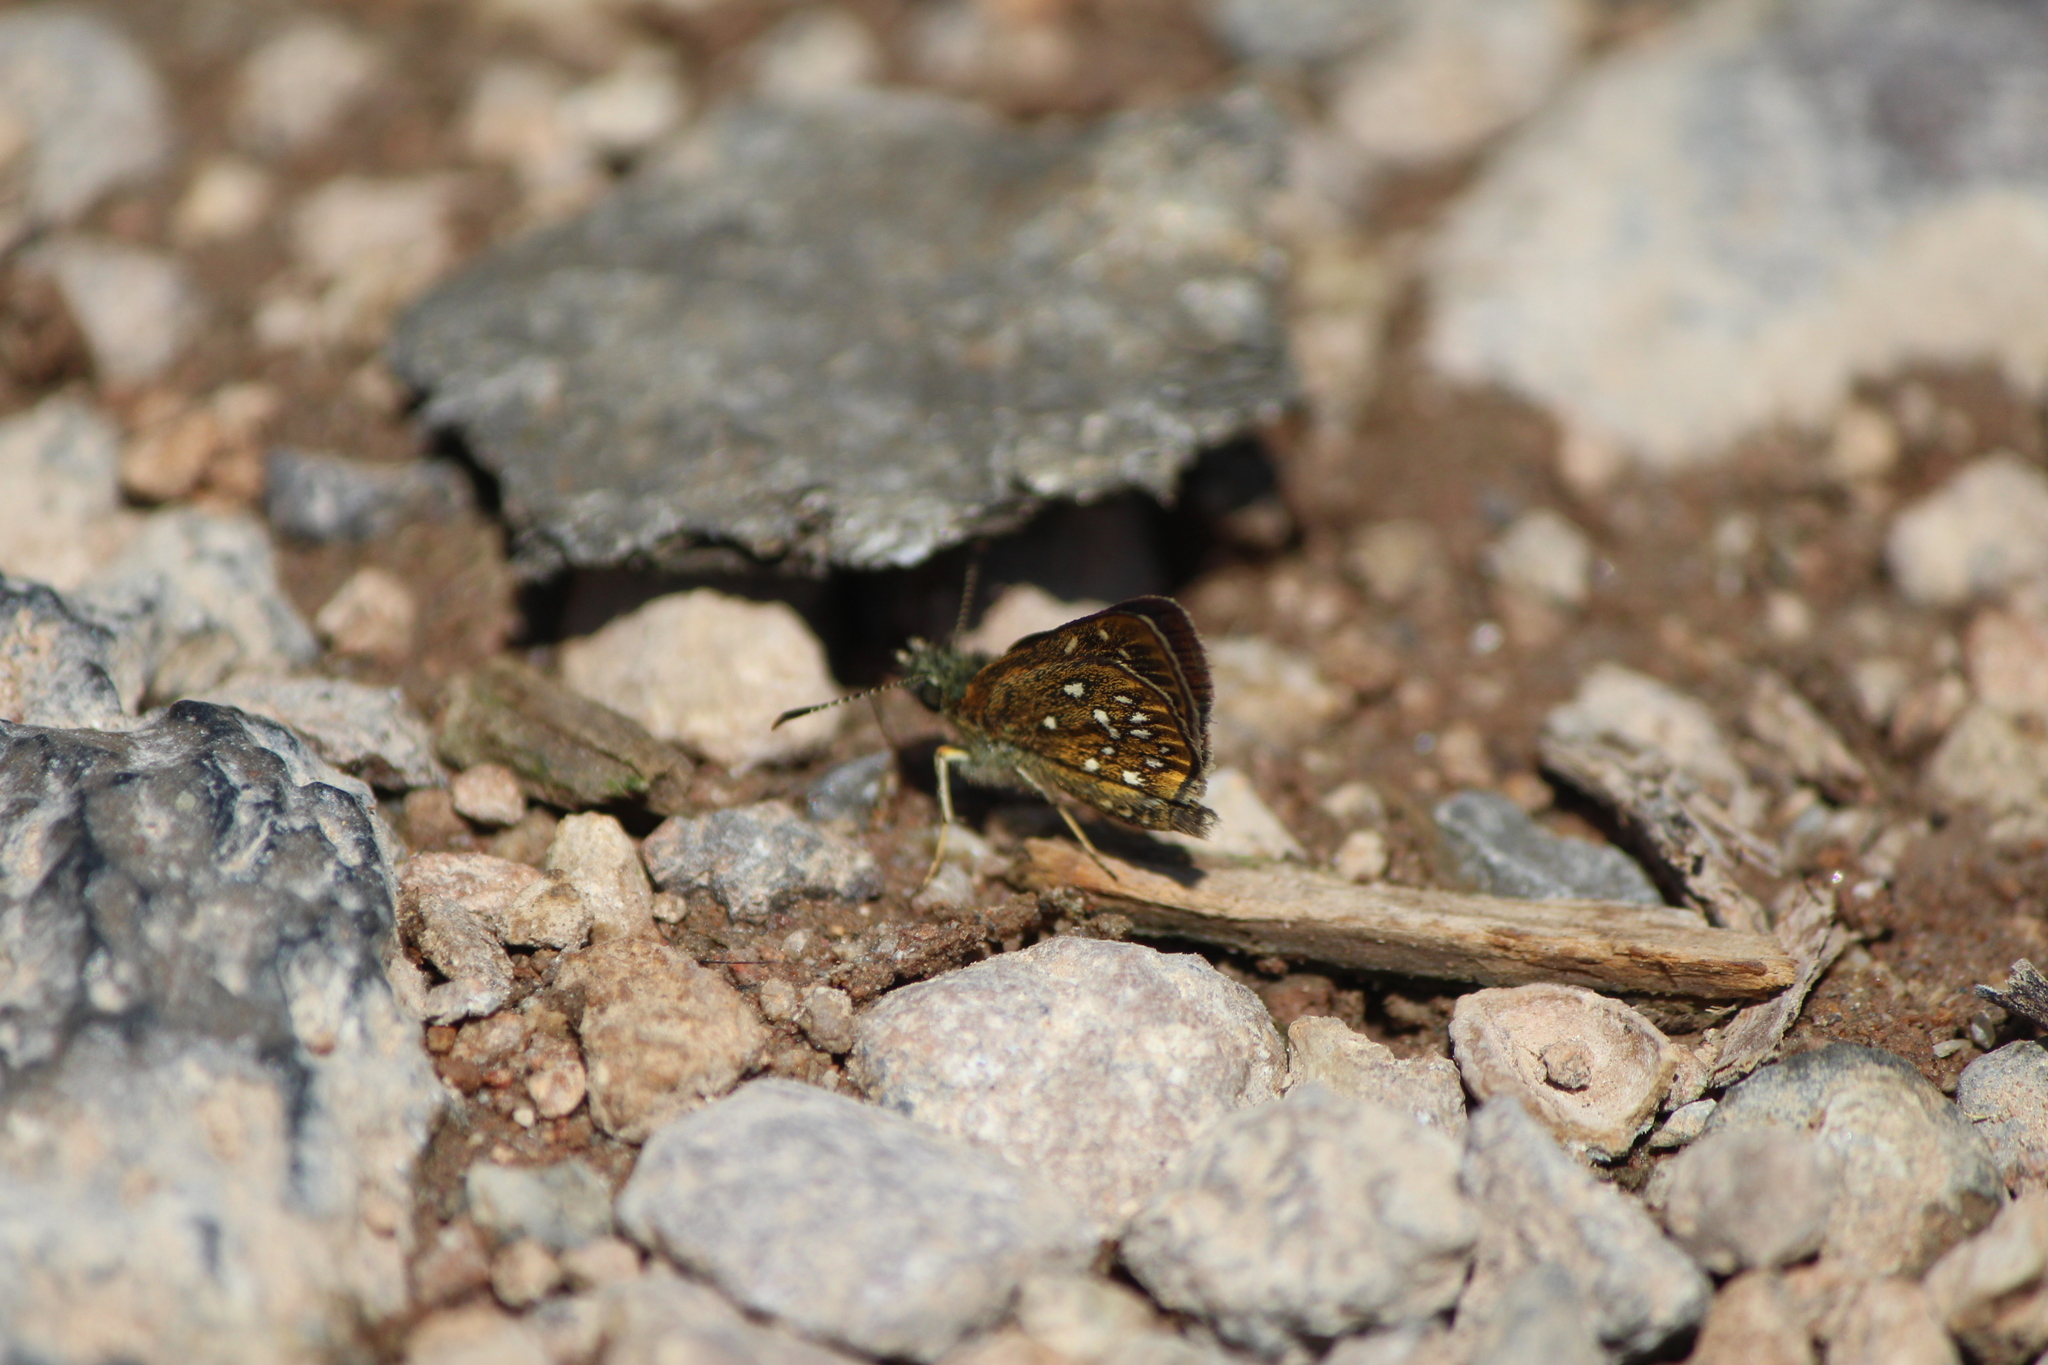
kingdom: Animalia
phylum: Arthropoda
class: Insecta
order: Lepidoptera
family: Hesperiidae
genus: Piruna
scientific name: Piruna aea
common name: Many-spotted skipperling
